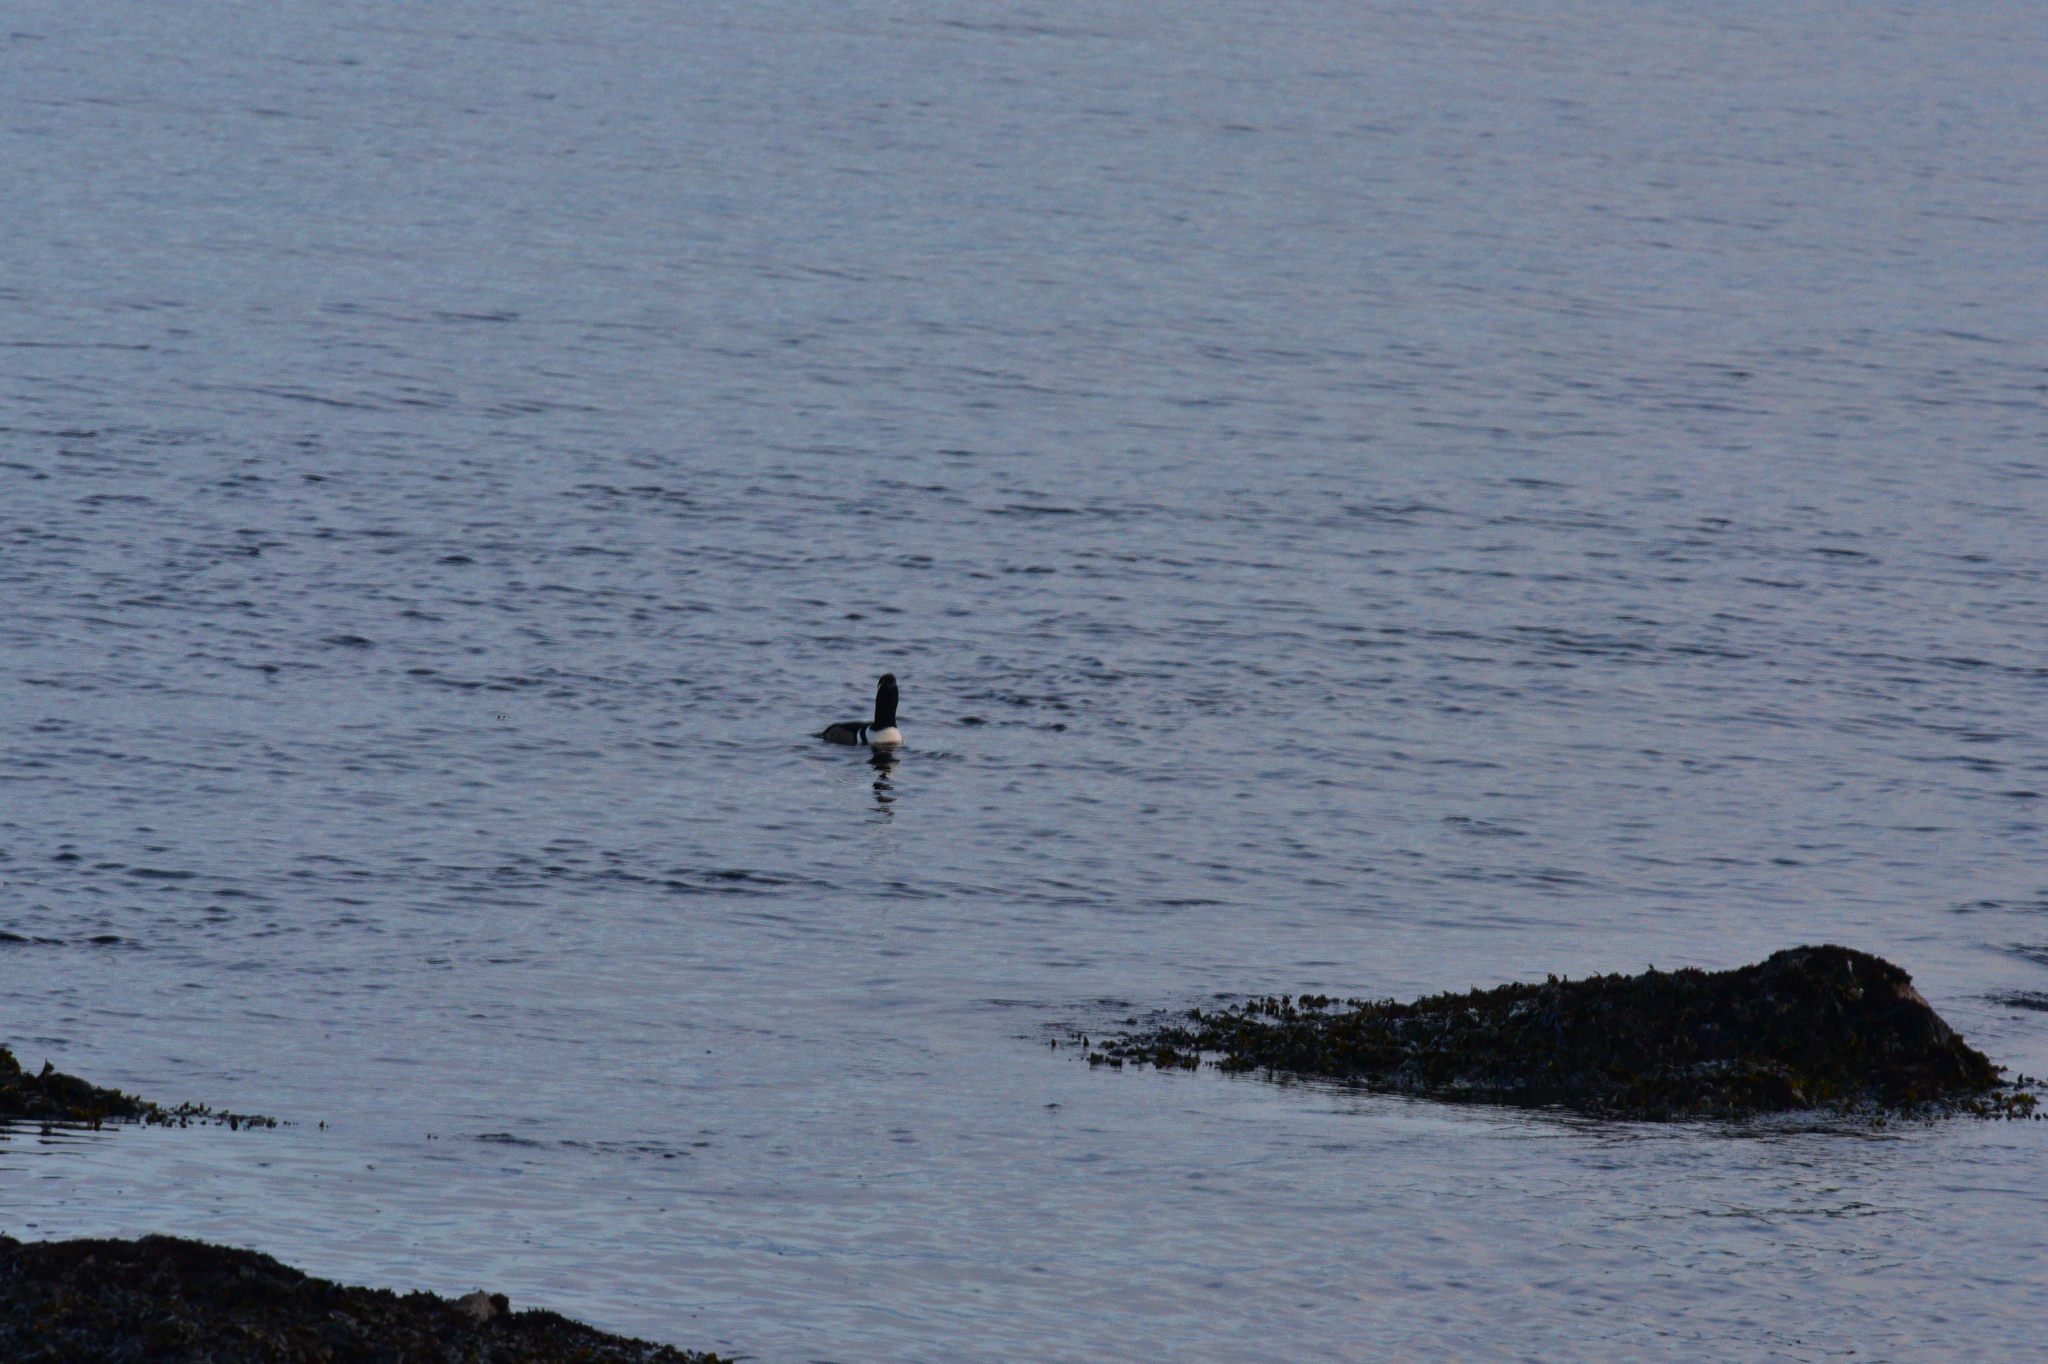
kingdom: Animalia
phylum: Chordata
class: Aves
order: Anseriformes
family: Anatidae
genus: Lophodytes
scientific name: Lophodytes cucullatus
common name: Hooded merganser
